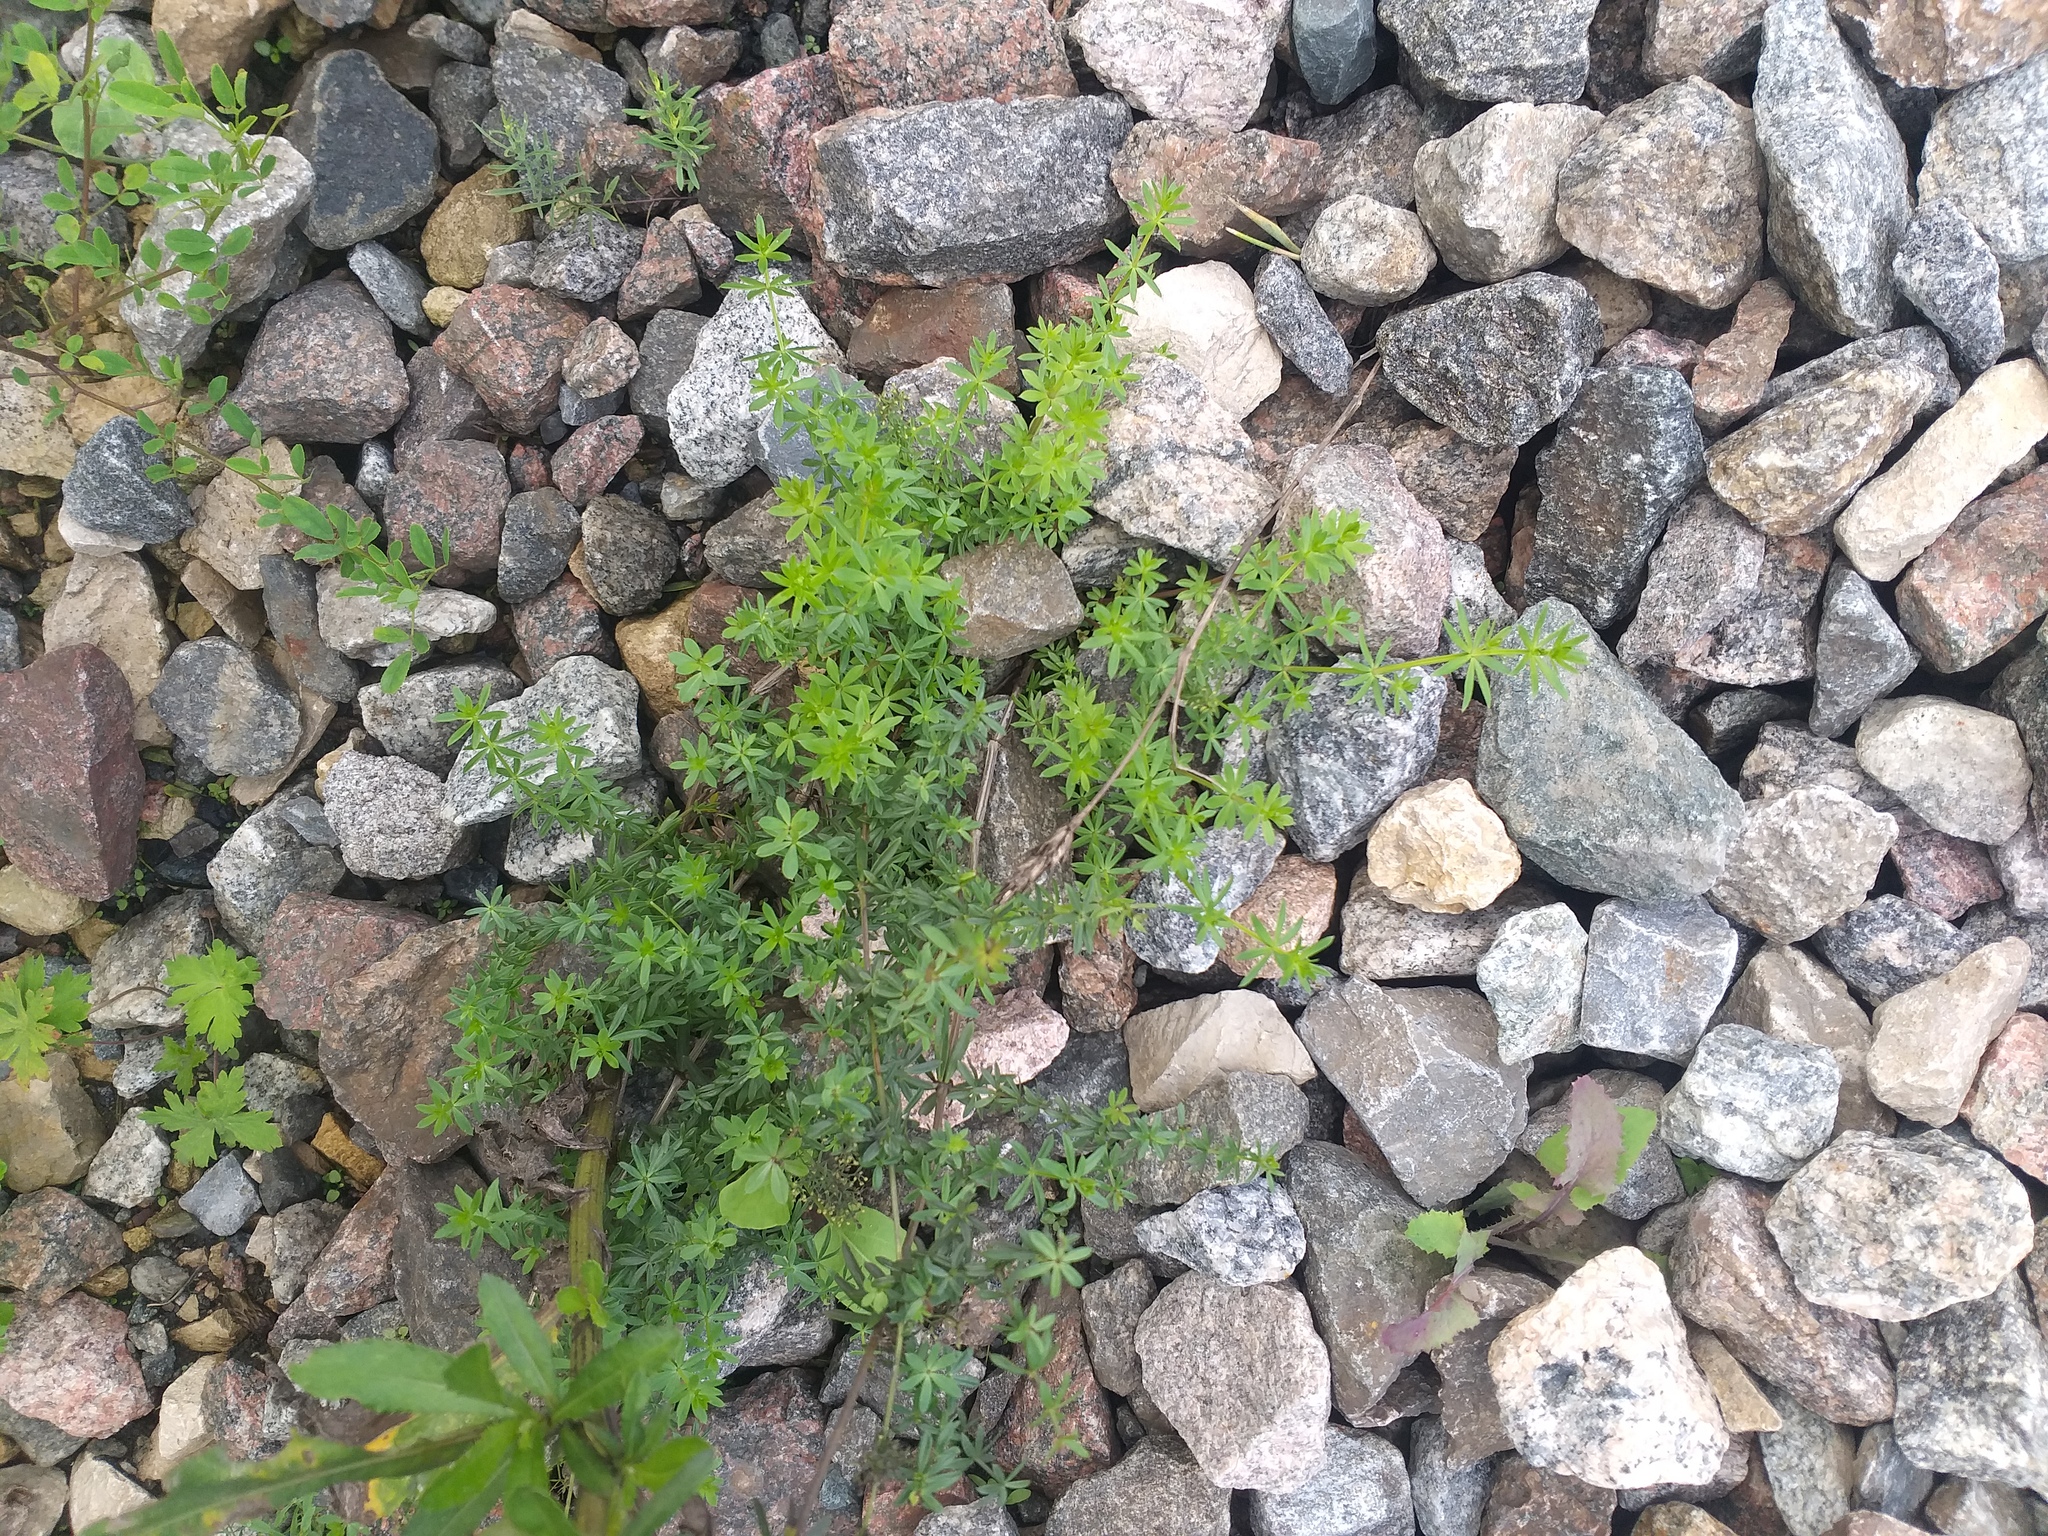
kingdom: Plantae
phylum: Tracheophyta
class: Magnoliopsida
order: Gentianales
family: Rubiaceae
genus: Galium
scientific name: Galium mollugo
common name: Hedge bedstraw
